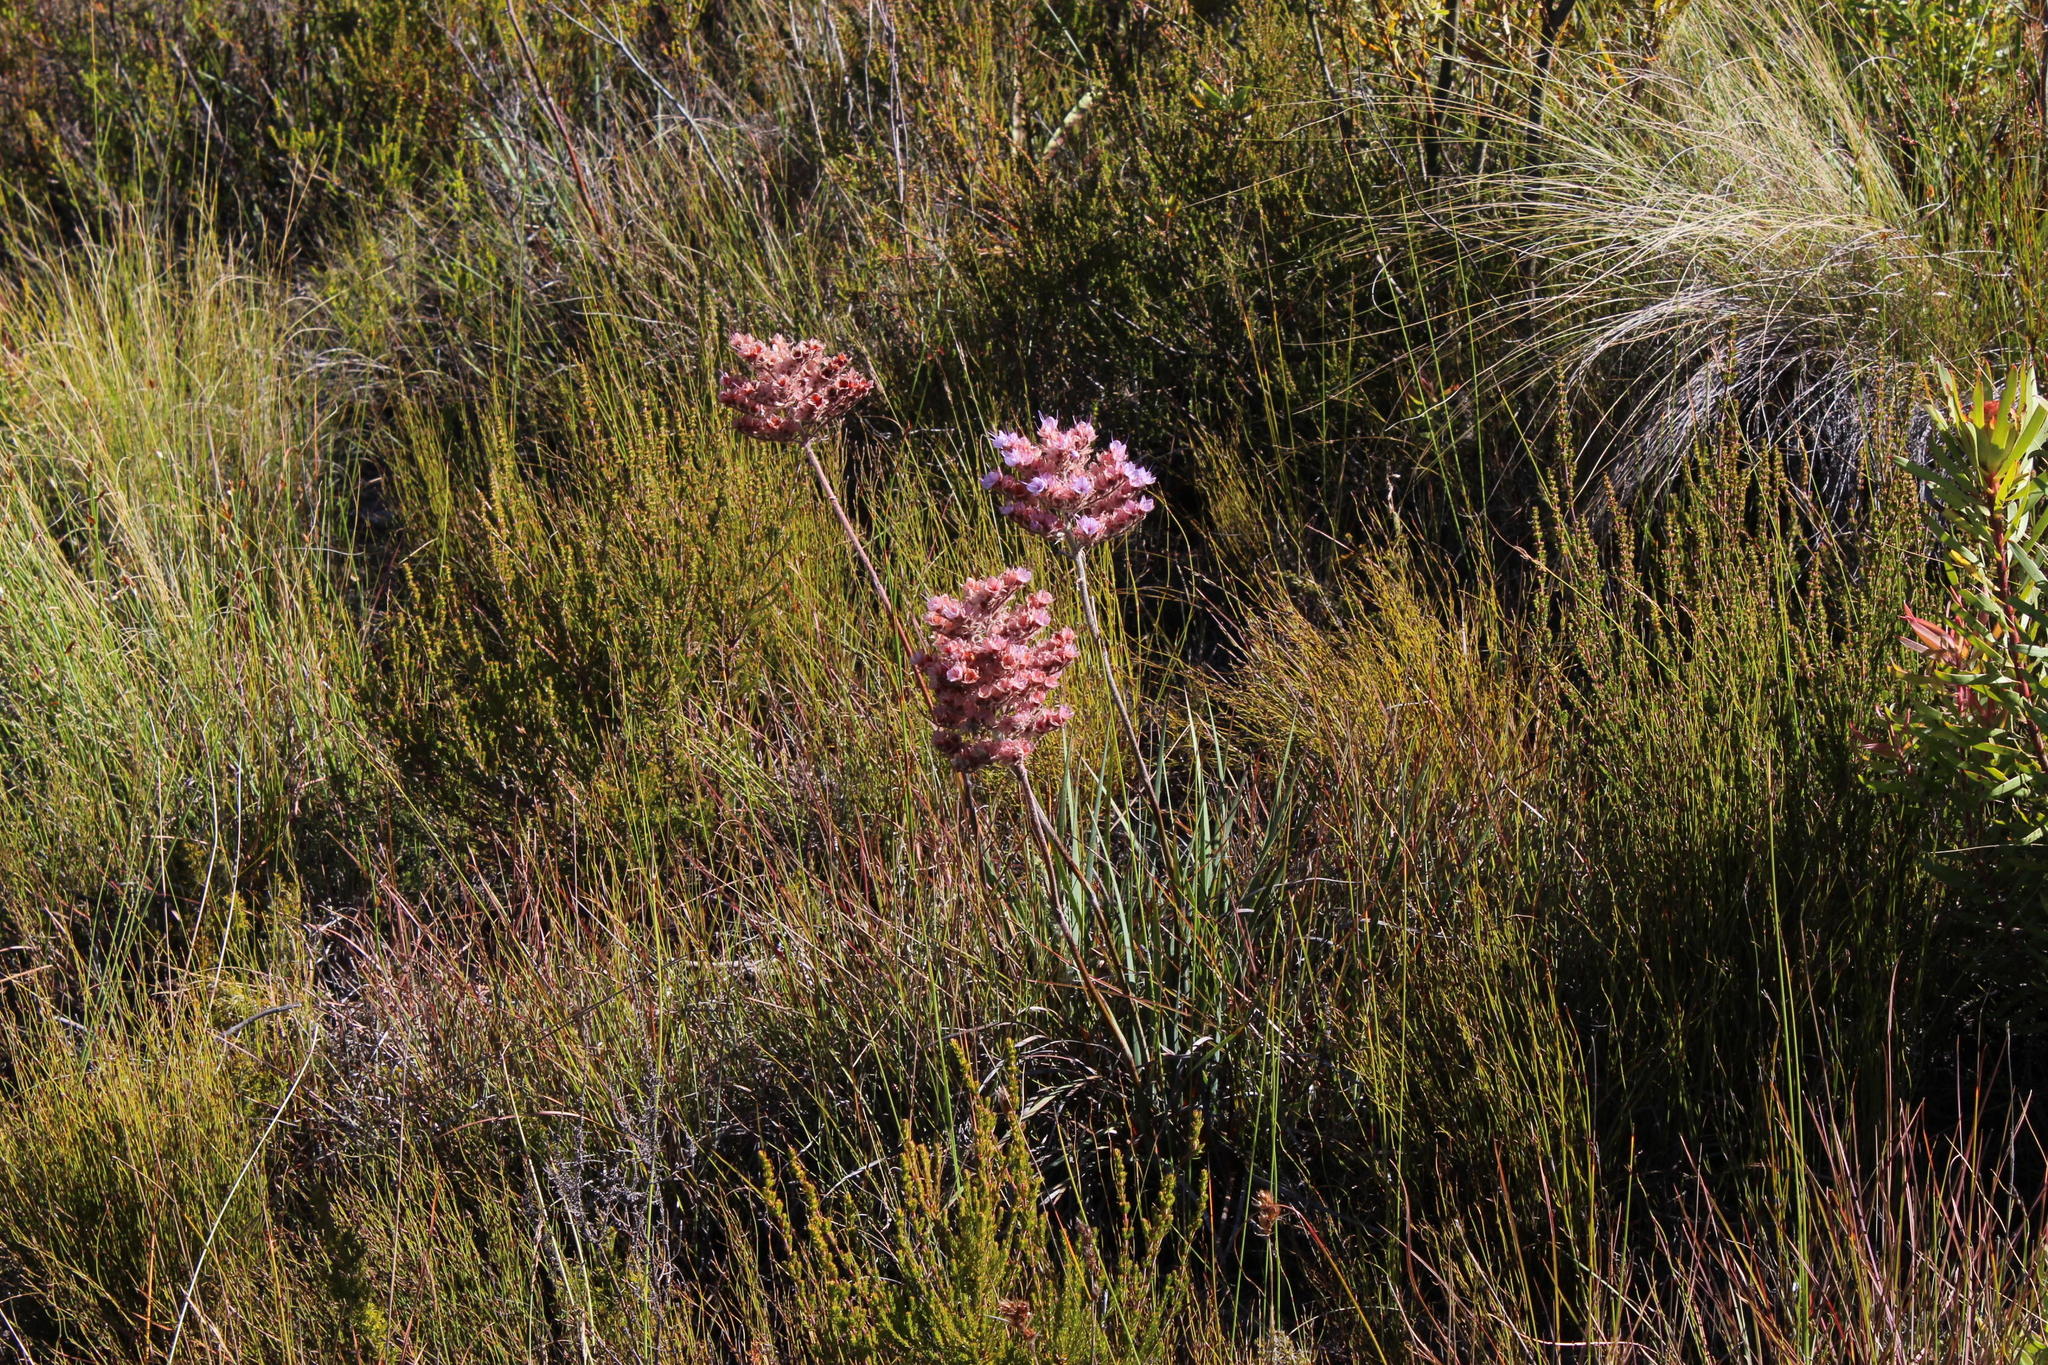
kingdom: Plantae
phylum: Tracheophyta
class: Liliopsida
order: Commelinales
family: Haemodoraceae
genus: Dilatris
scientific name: Dilatris ixioides
